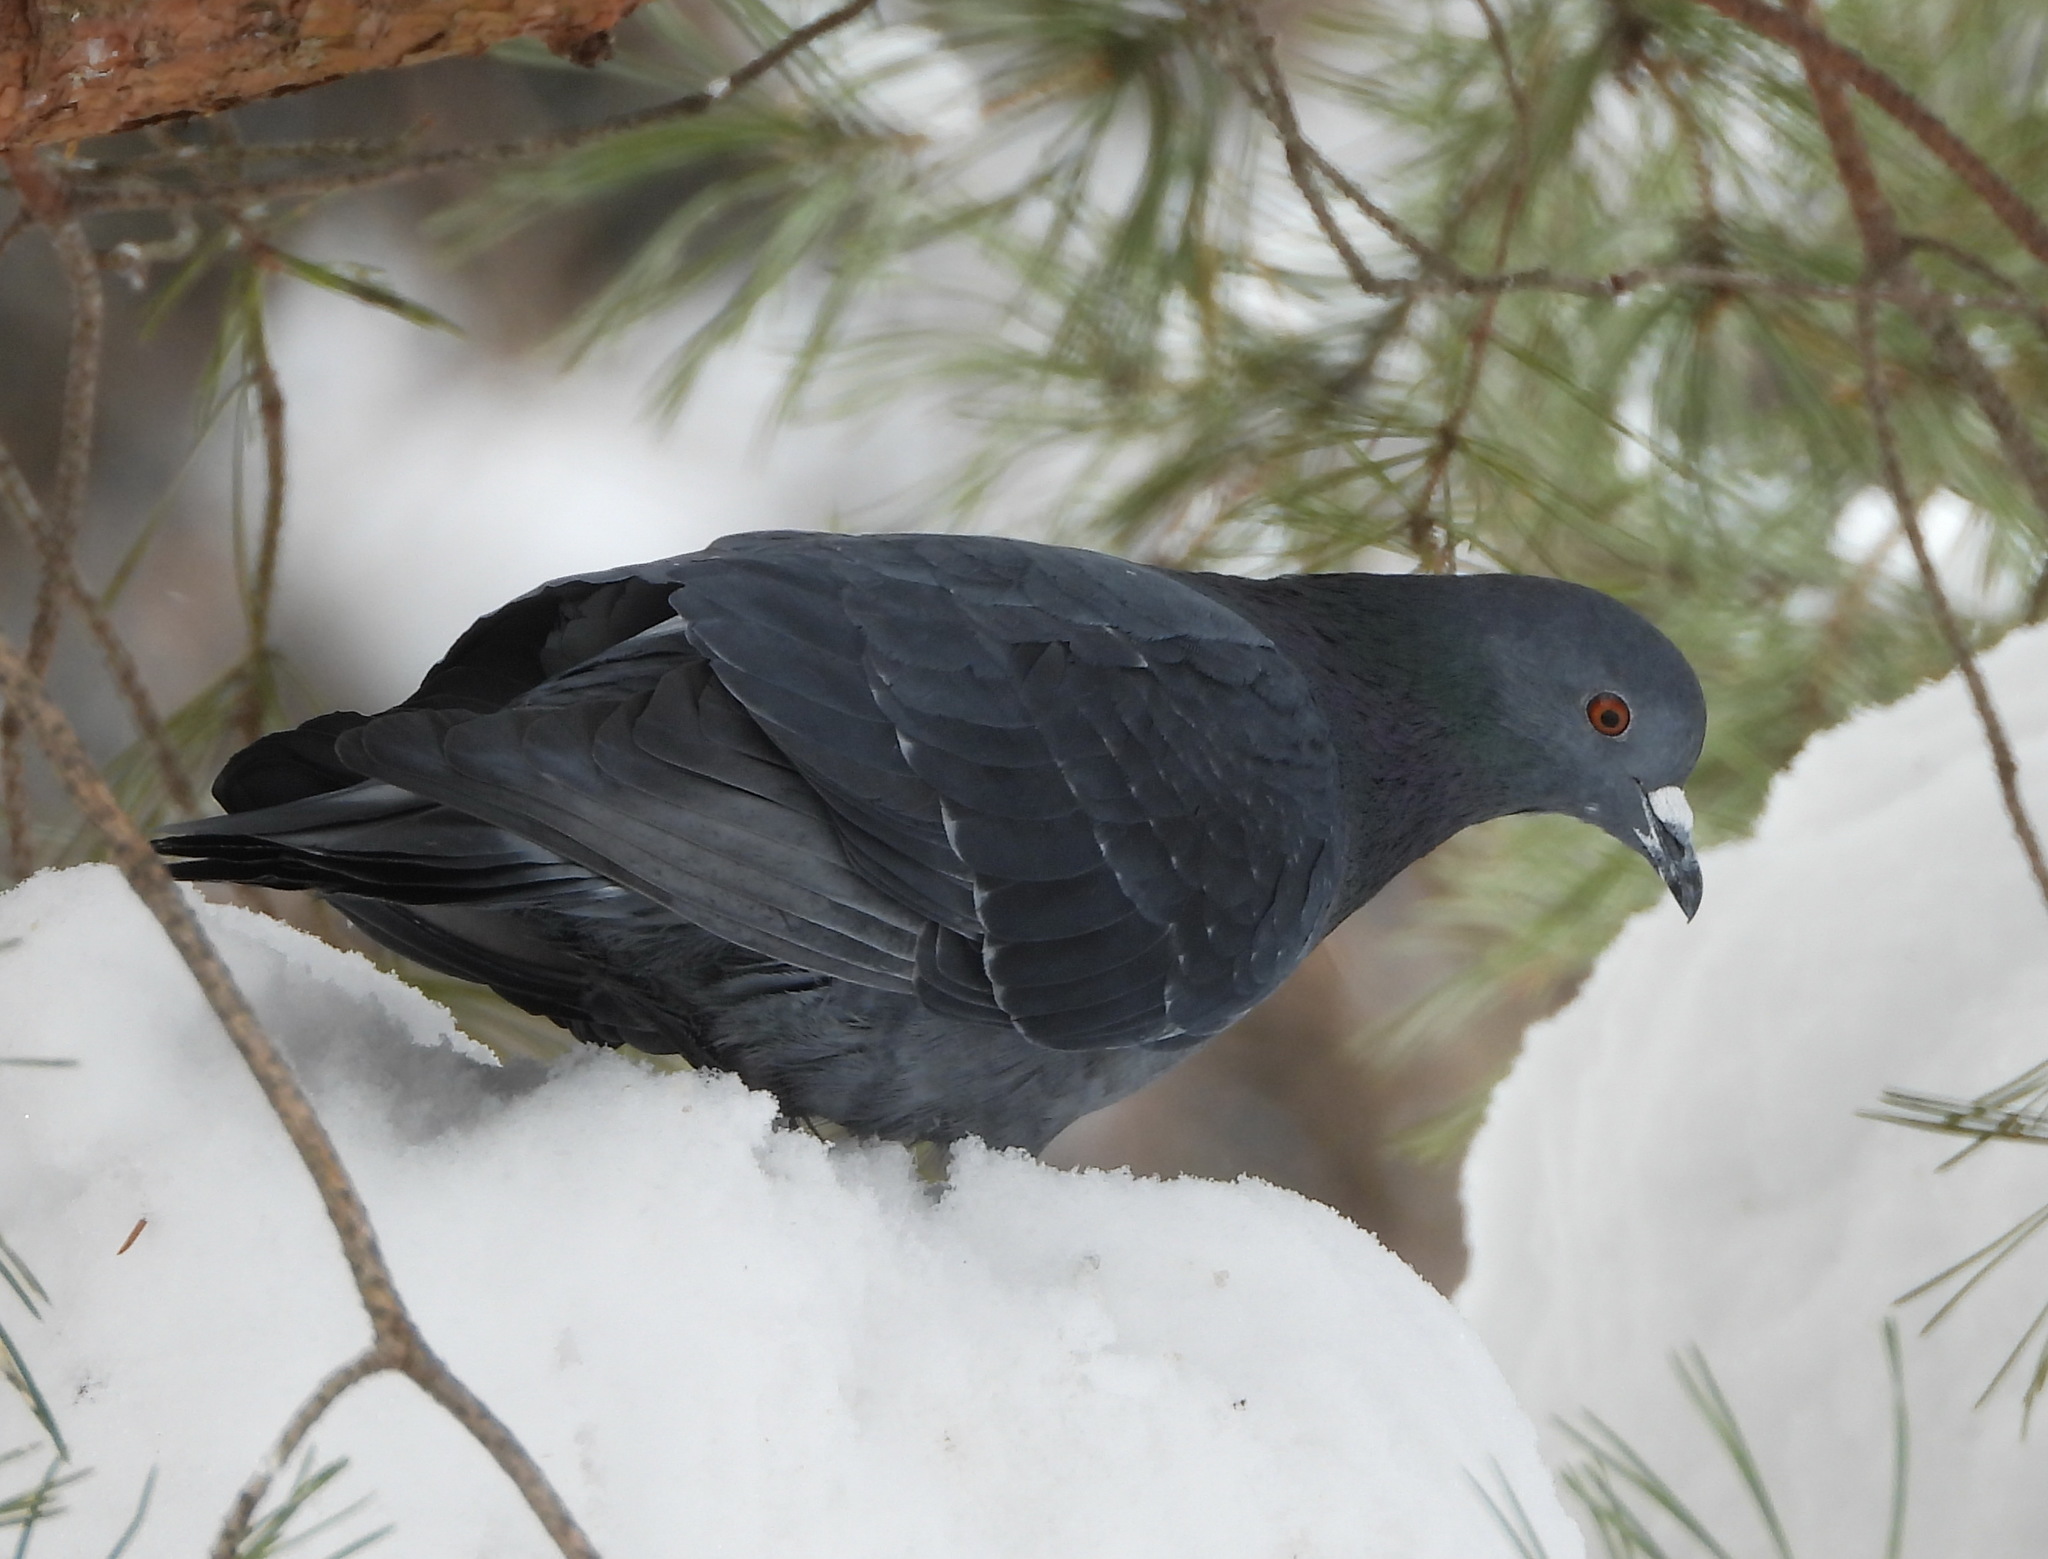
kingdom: Animalia
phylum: Chordata
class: Aves
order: Columbiformes
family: Columbidae
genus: Columba
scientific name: Columba livia
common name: Rock pigeon
